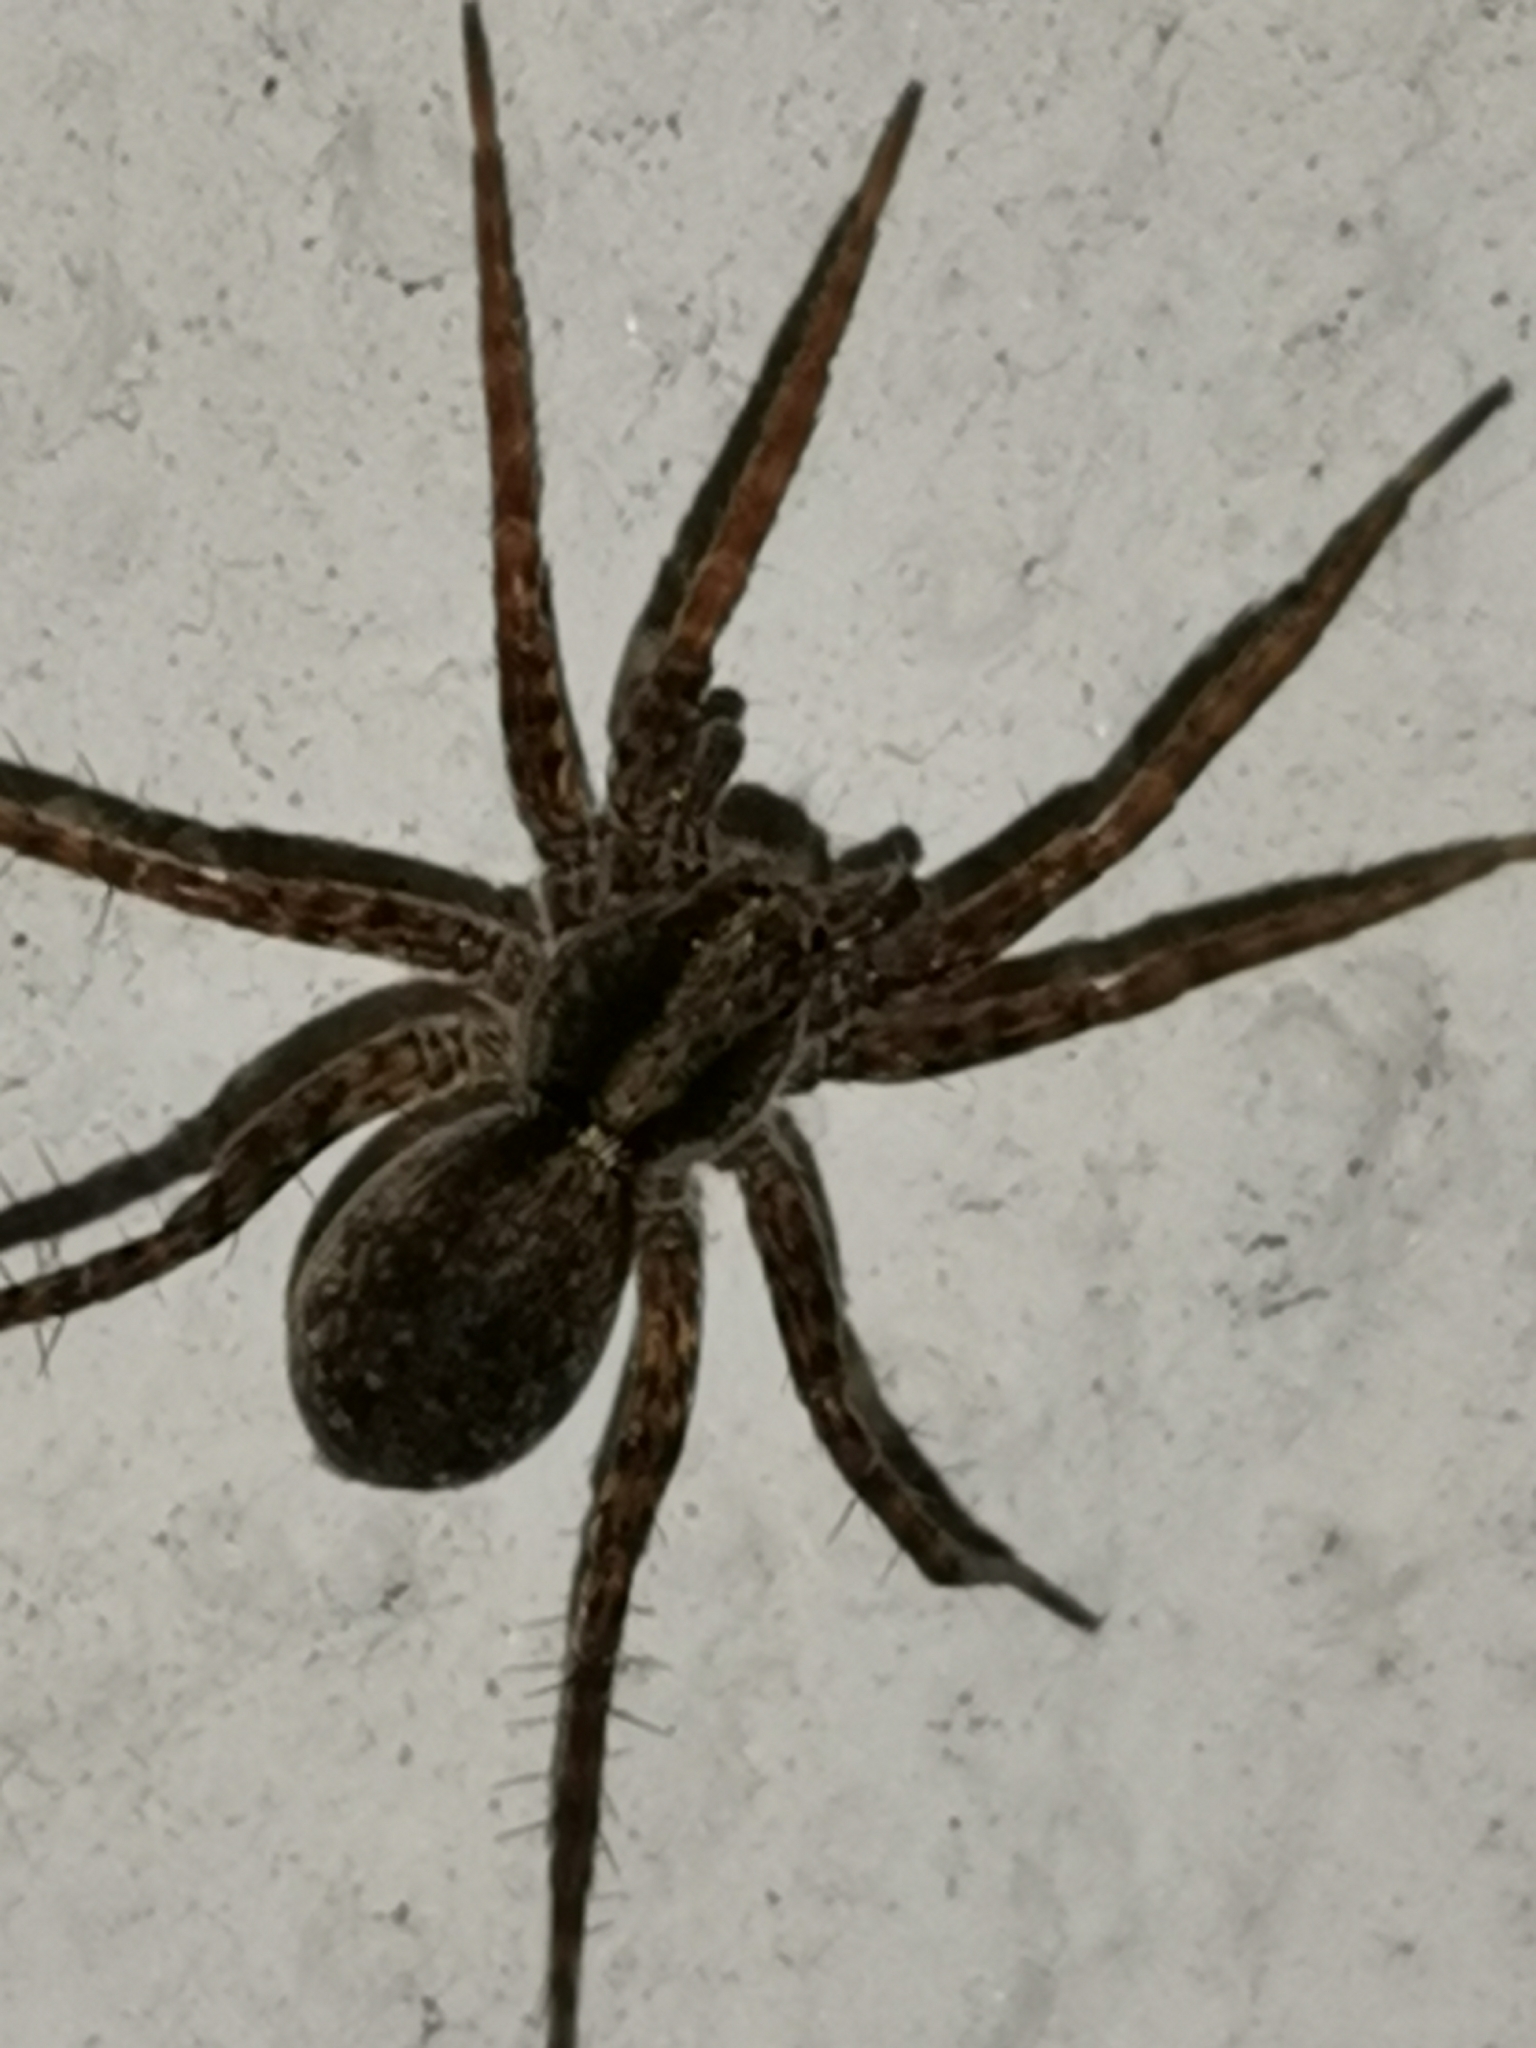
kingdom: Animalia
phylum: Arthropoda
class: Arachnida
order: Araneae
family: Lycosidae
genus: Pardosa
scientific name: Pardosa
